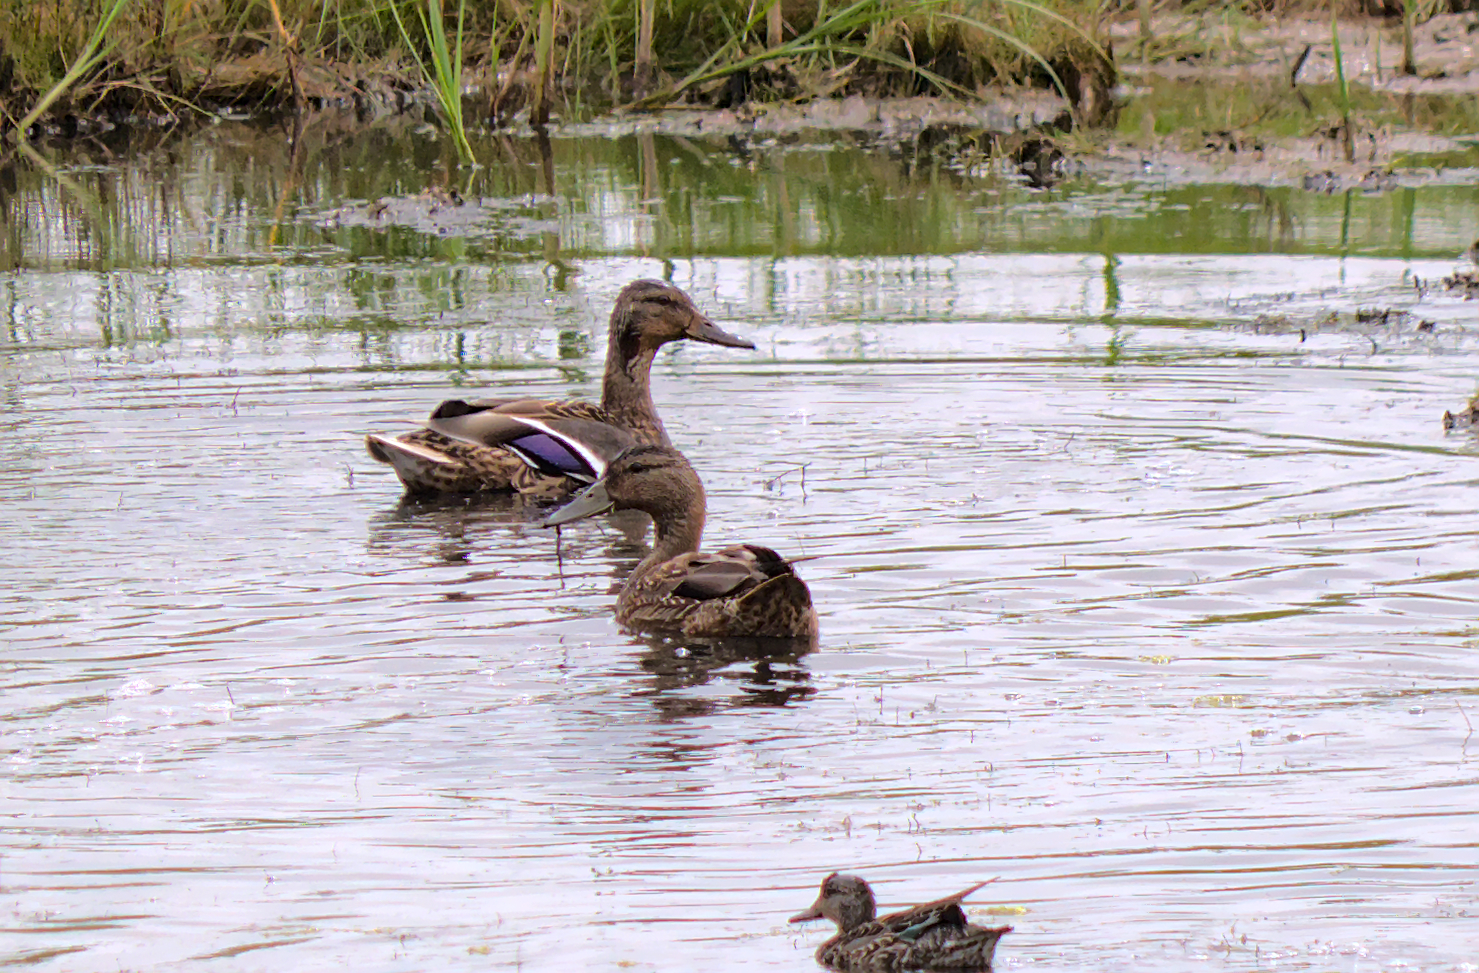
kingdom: Animalia
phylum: Chordata
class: Aves
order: Anseriformes
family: Anatidae
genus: Anas
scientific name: Anas platyrhynchos
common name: Mallard
